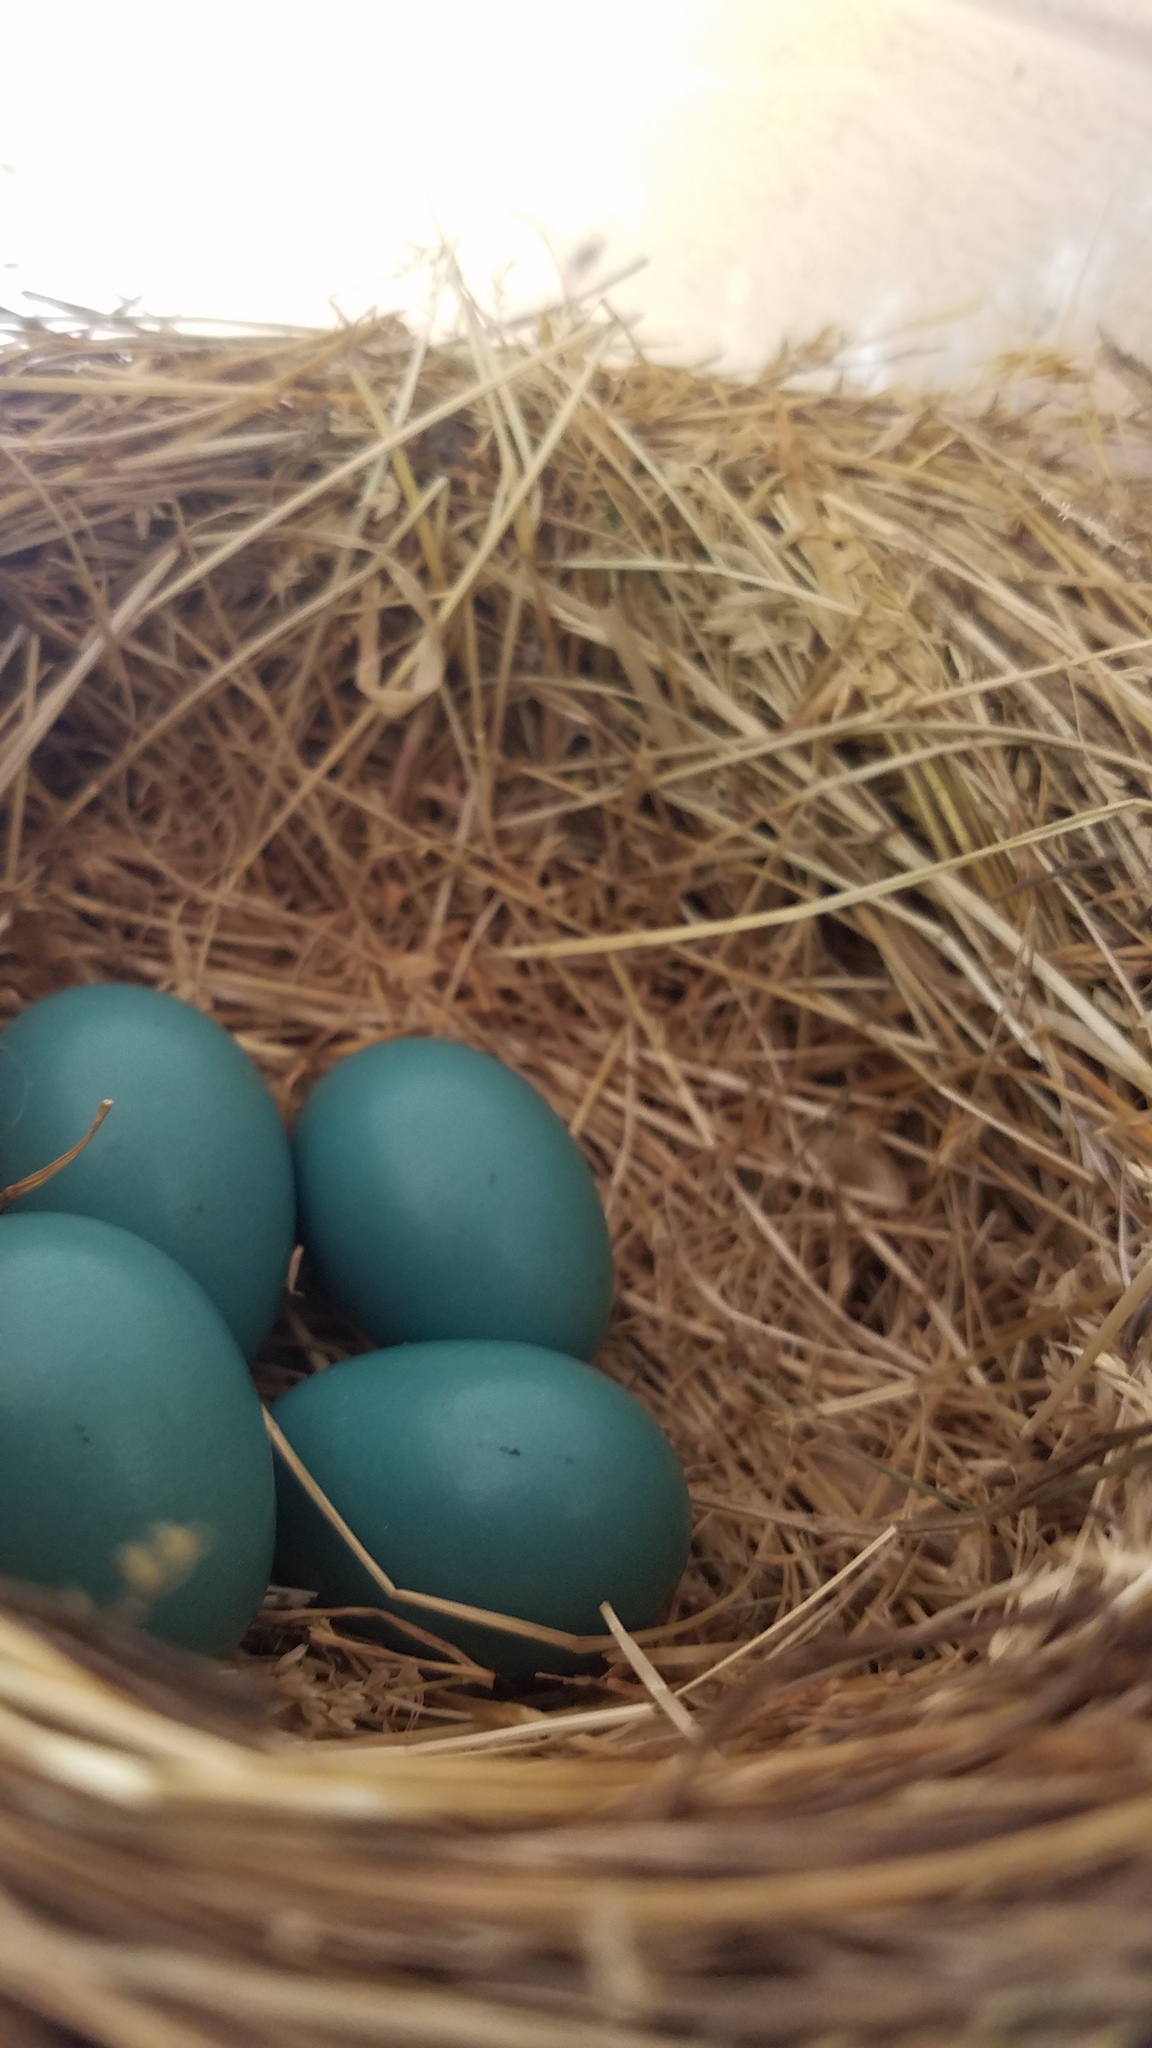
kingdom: Animalia
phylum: Chordata
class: Aves
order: Passeriformes
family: Turdidae
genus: Turdus
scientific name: Turdus migratorius
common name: American robin
